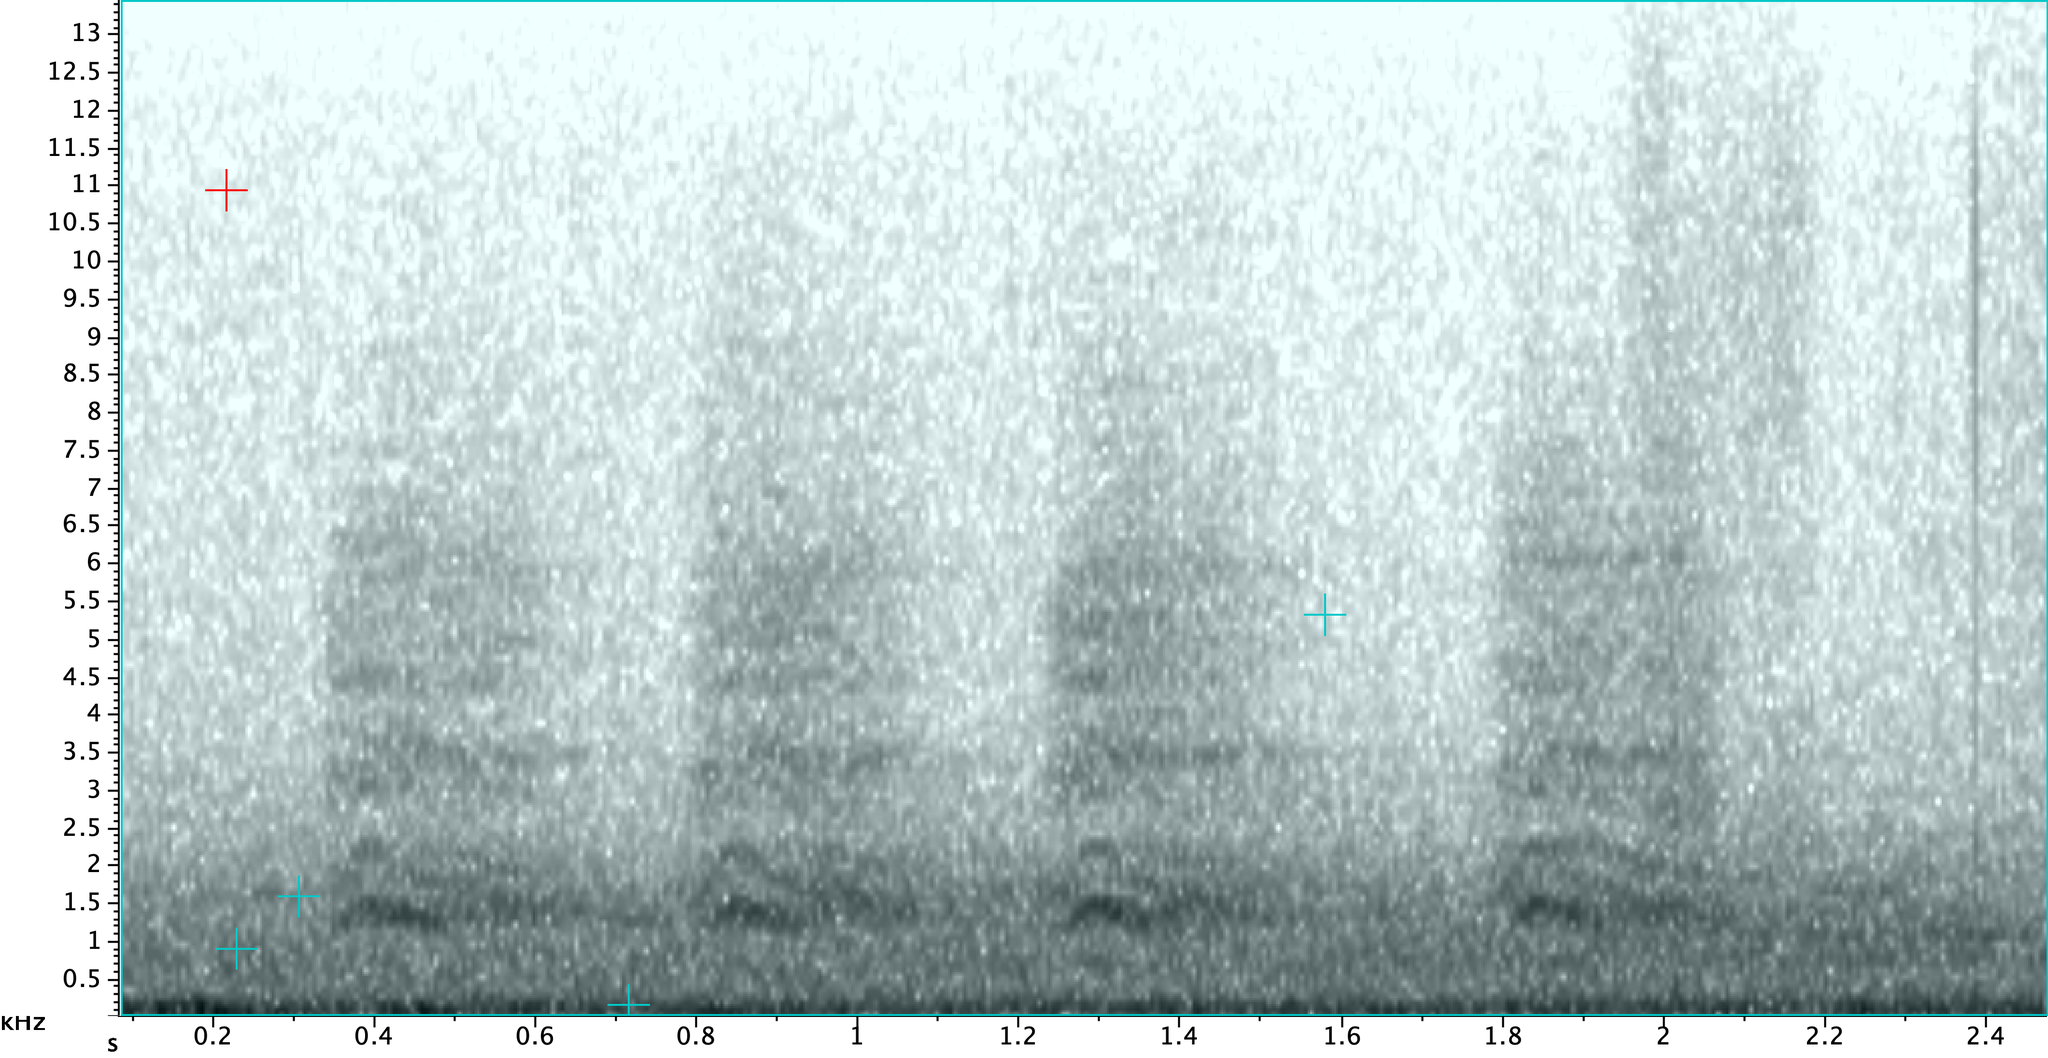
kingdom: Animalia
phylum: Chordata
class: Aves
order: Passeriformes
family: Corvidae
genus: Corvus
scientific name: Corvus brachyrhynchos
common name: American crow
